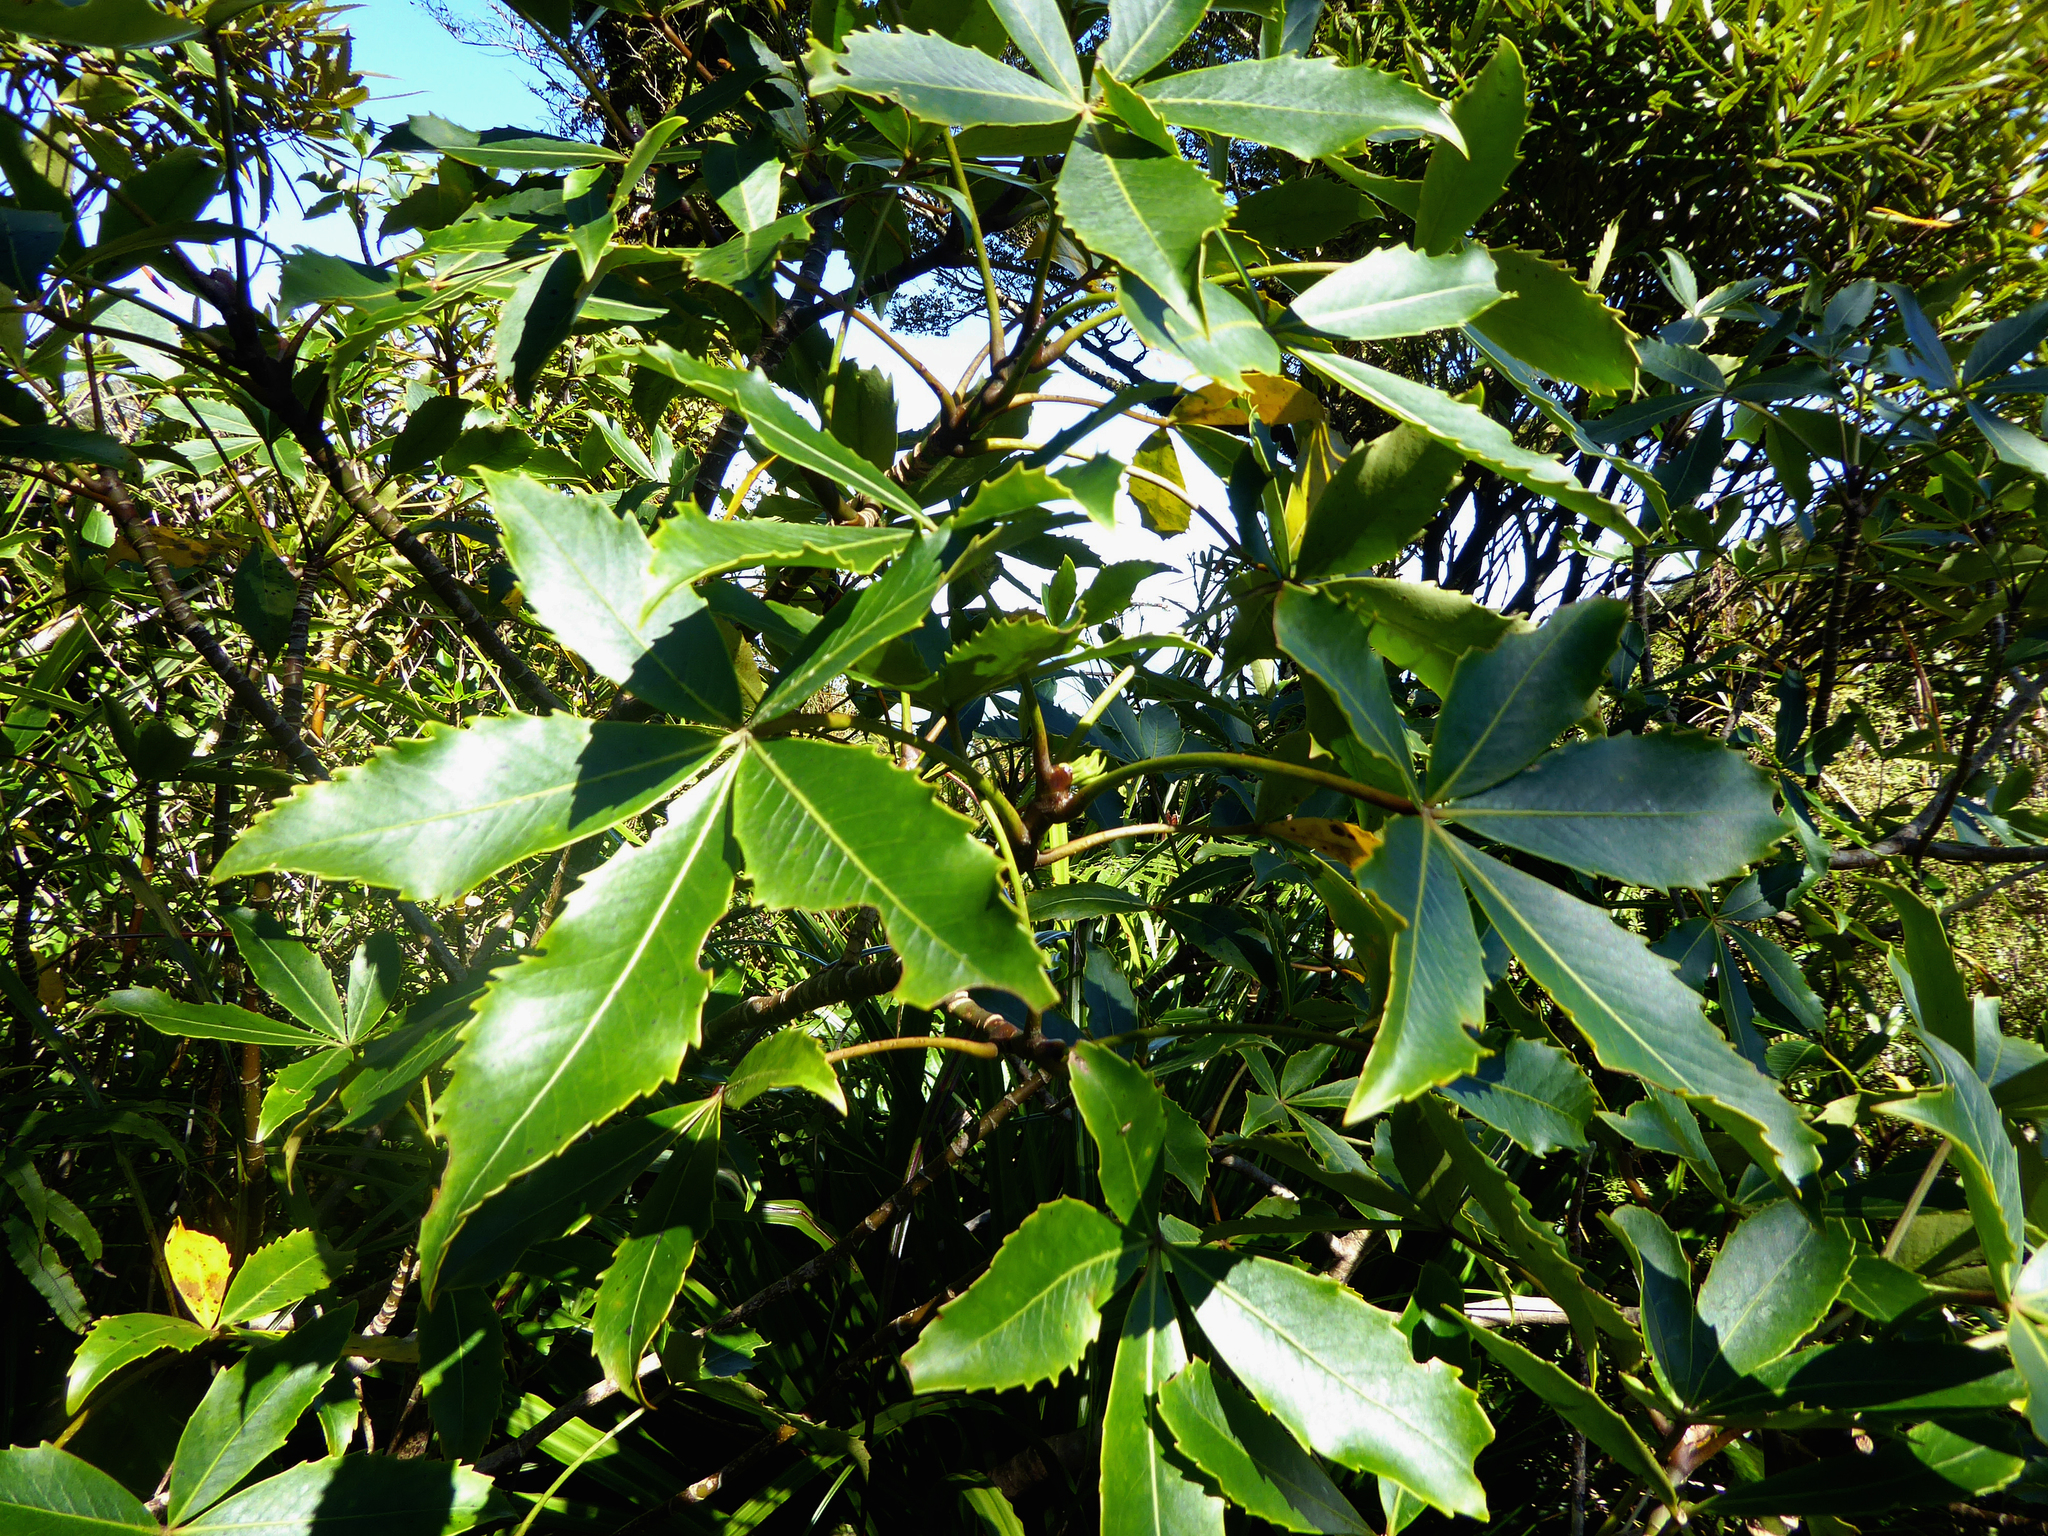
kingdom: Plantae
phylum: Tracheophyta
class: Magnoliopsida
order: Apiales
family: Araliaceae
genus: Neopanax
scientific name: Neopanax colensoi
